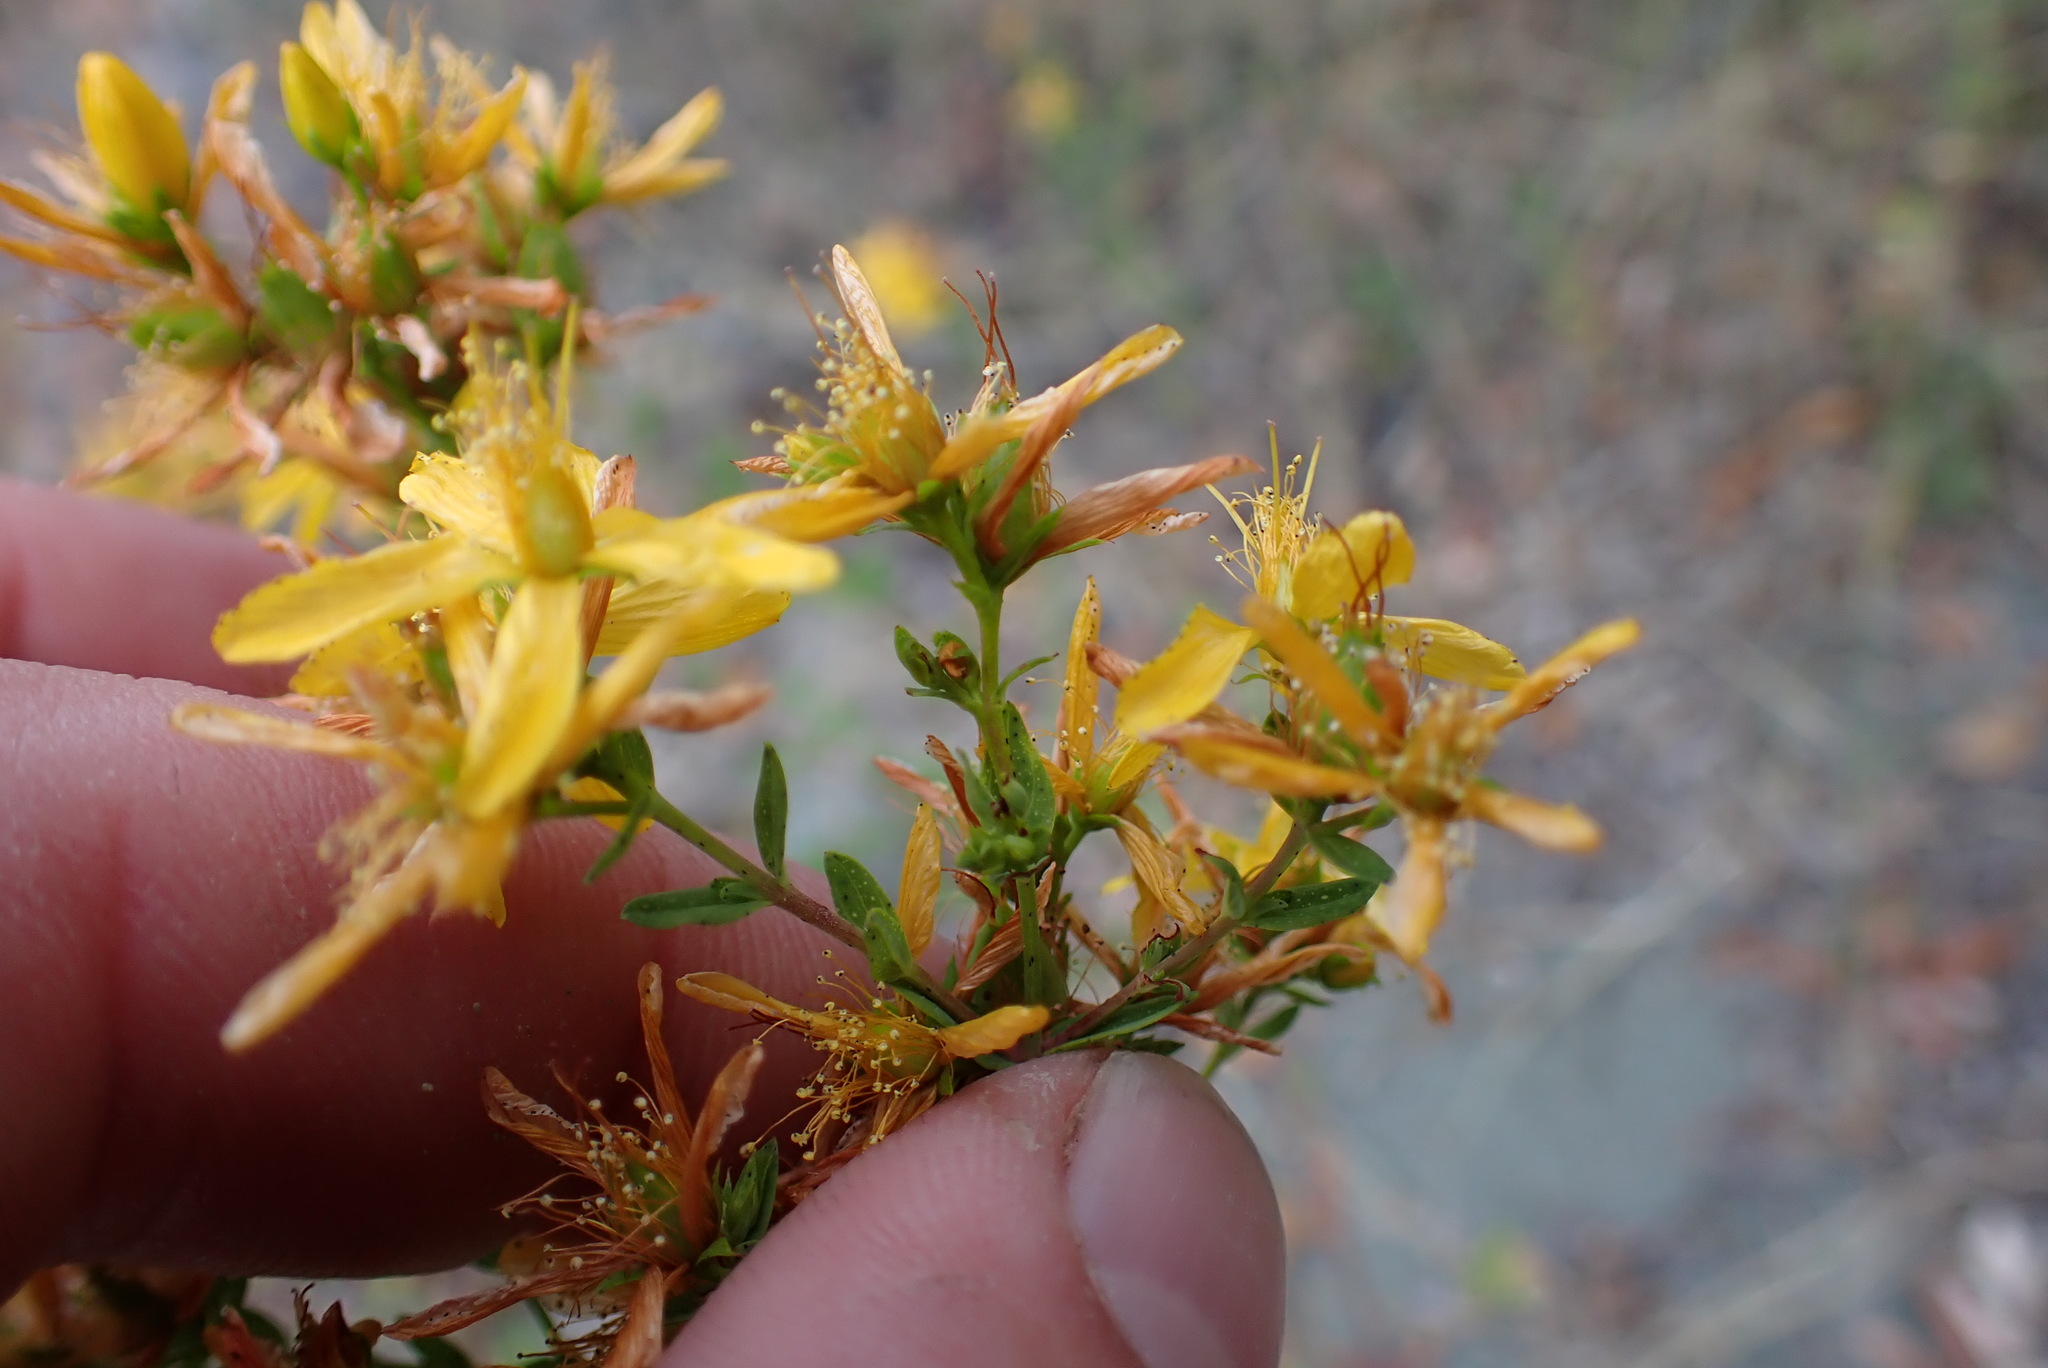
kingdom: Plantae
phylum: Tracheophyta
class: Magnoliopsida
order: Malpighiales
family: Hypericaceae
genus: Hypericum
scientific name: Hypericum perforatum
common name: Common st. johnswort
